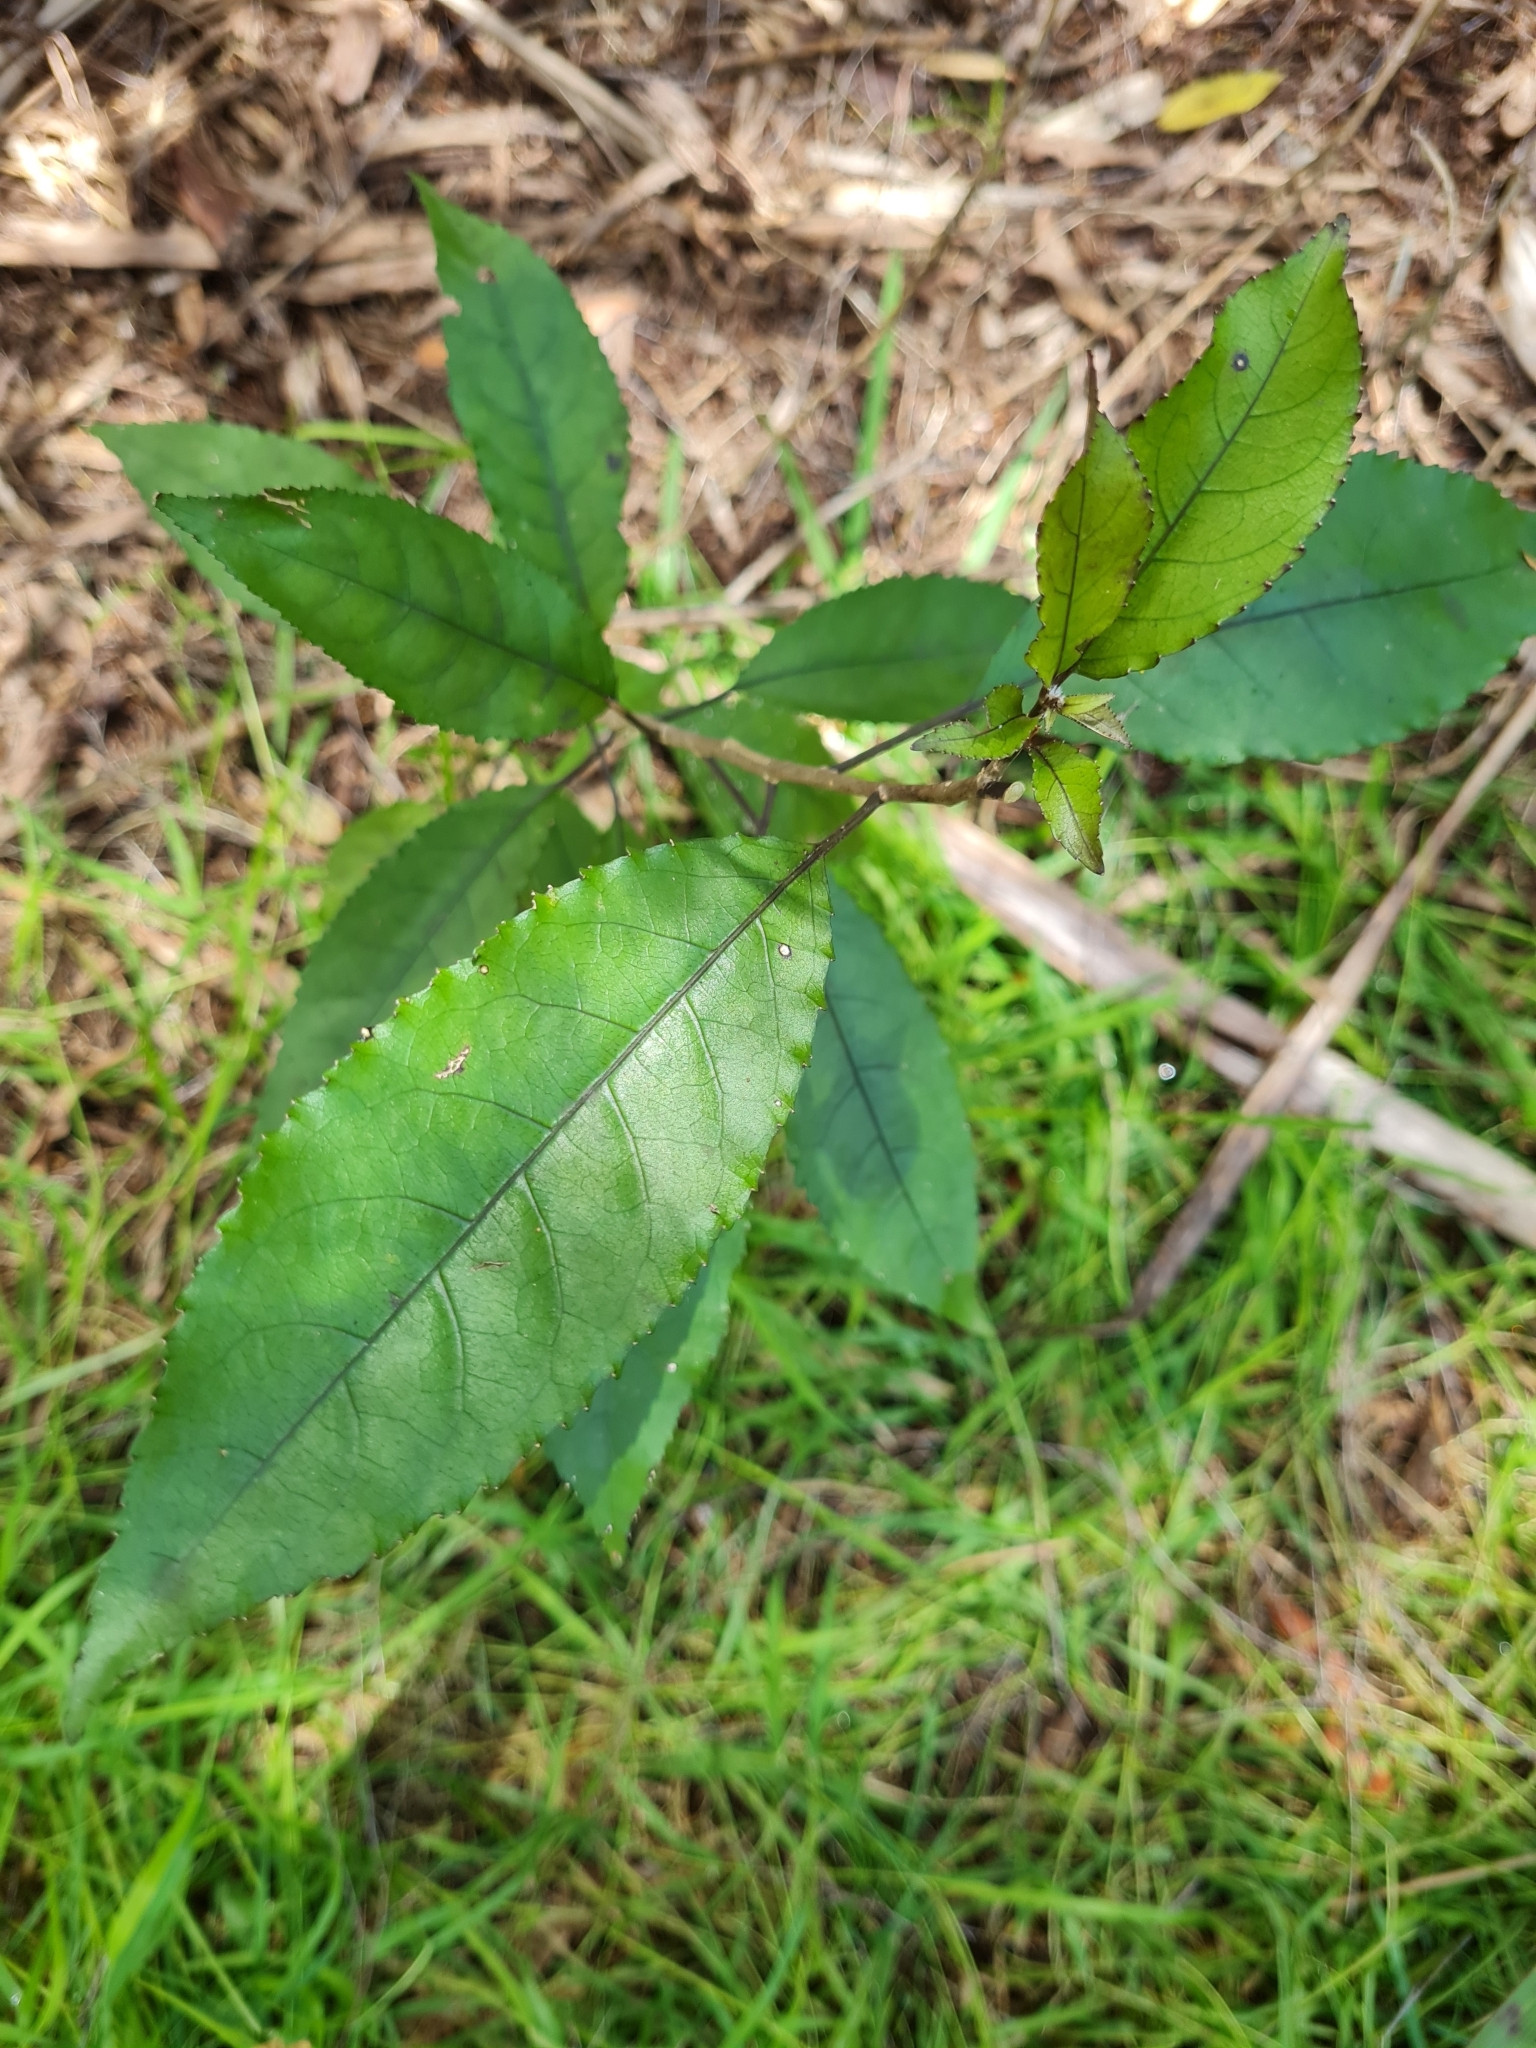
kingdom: Plantae
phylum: Tracheophyta
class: Magnoliopsida
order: Malpighiales
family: Violaceae
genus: Melicytus
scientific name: Melicytus ramiflorus
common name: Mahoe
